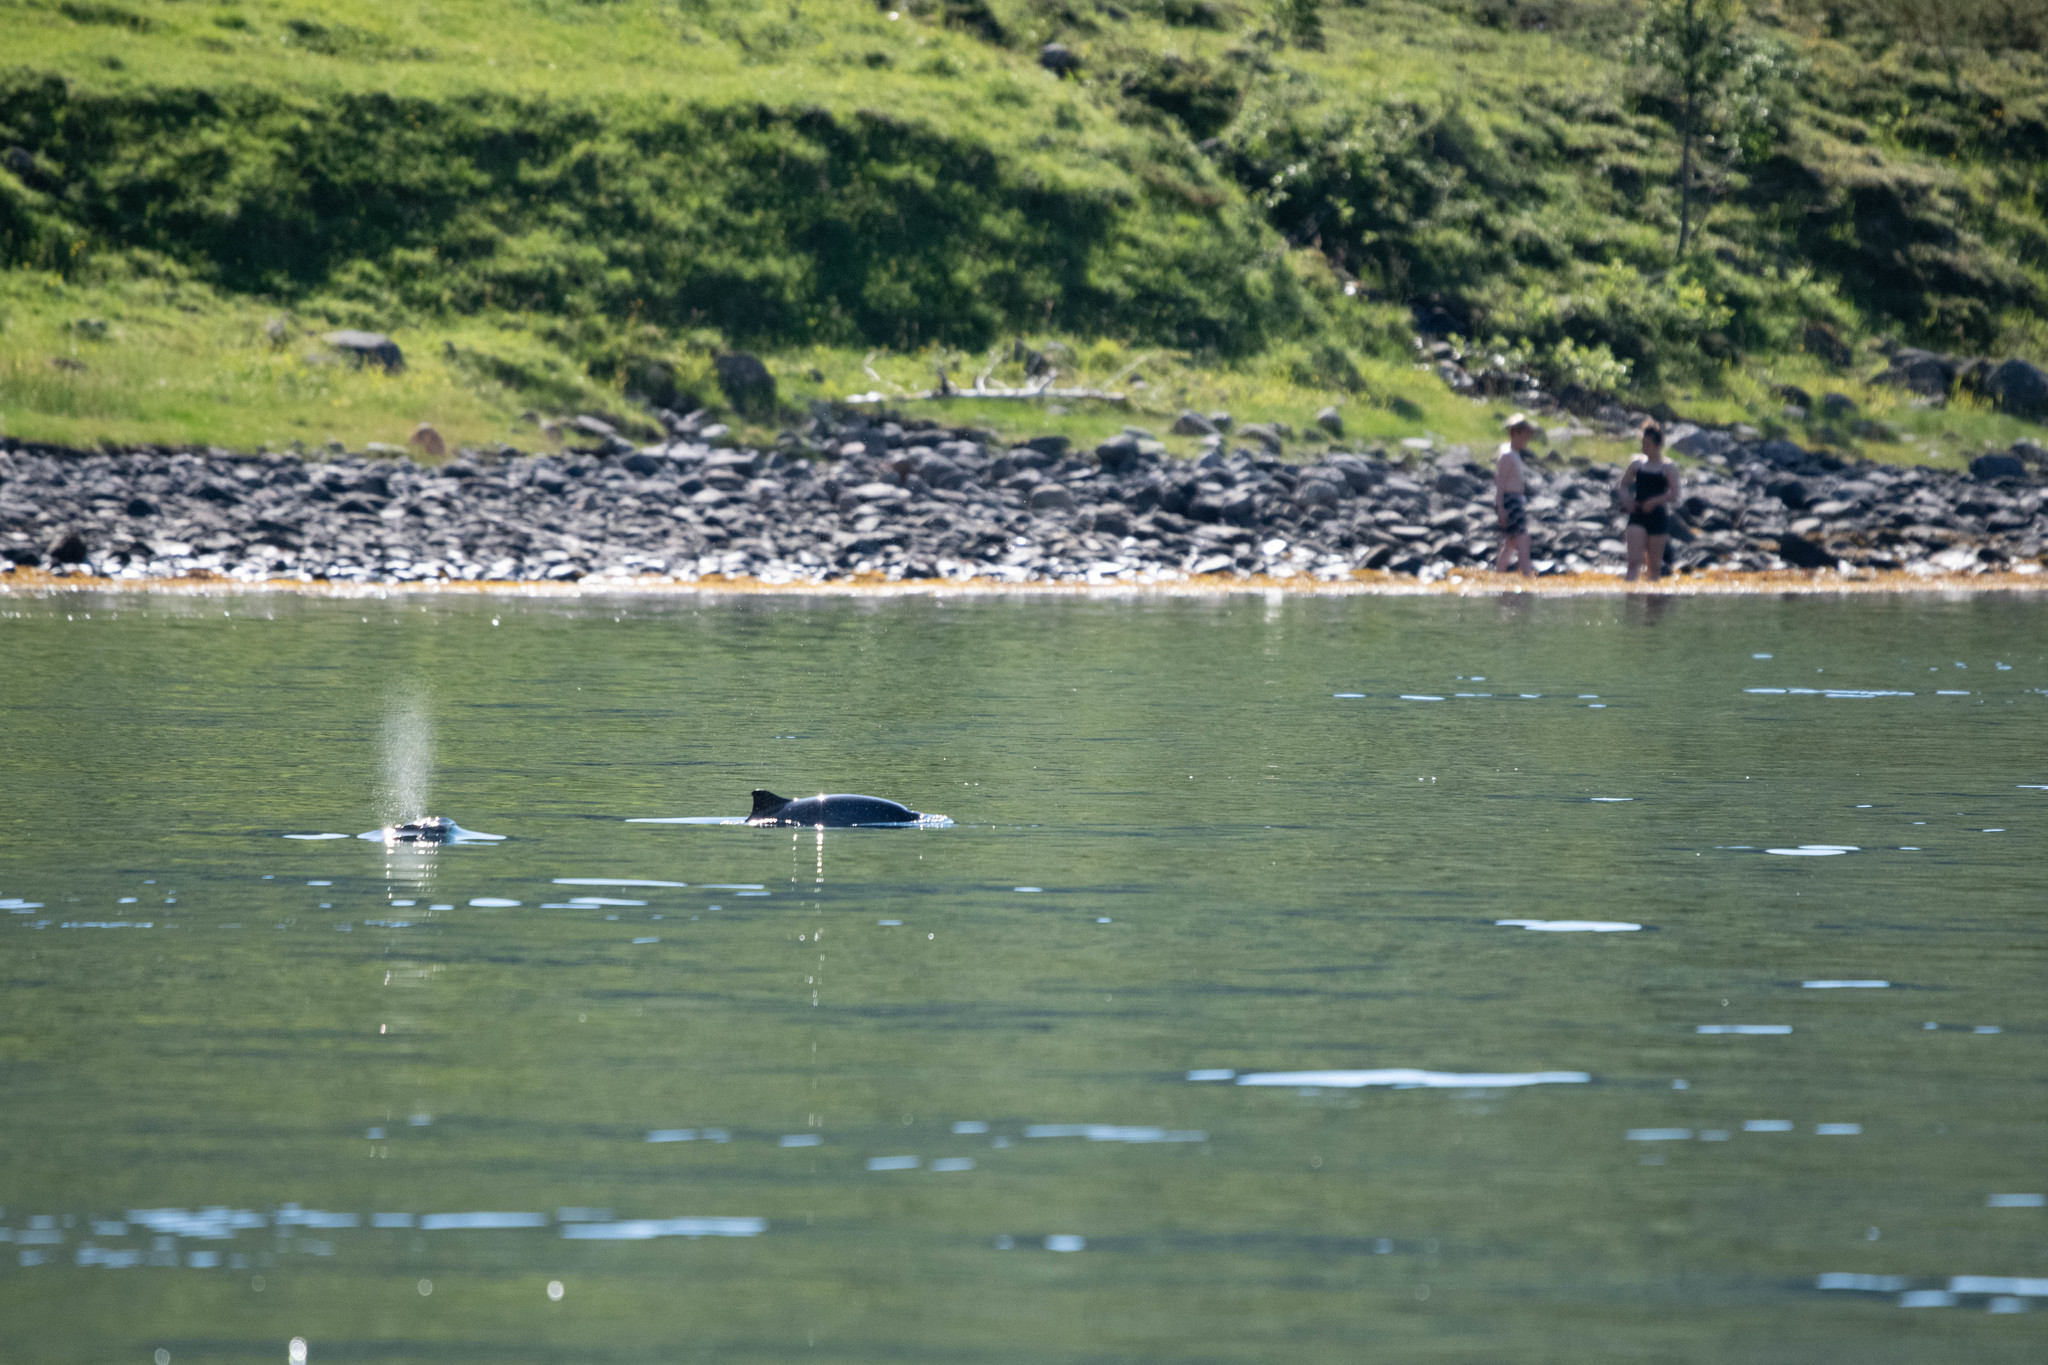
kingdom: Animalia
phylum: Chordata
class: Mammalia
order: Cetacea
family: Phocoenidae
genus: Phocoena
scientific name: Phocoena phocoena
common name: Harbor porpoise
